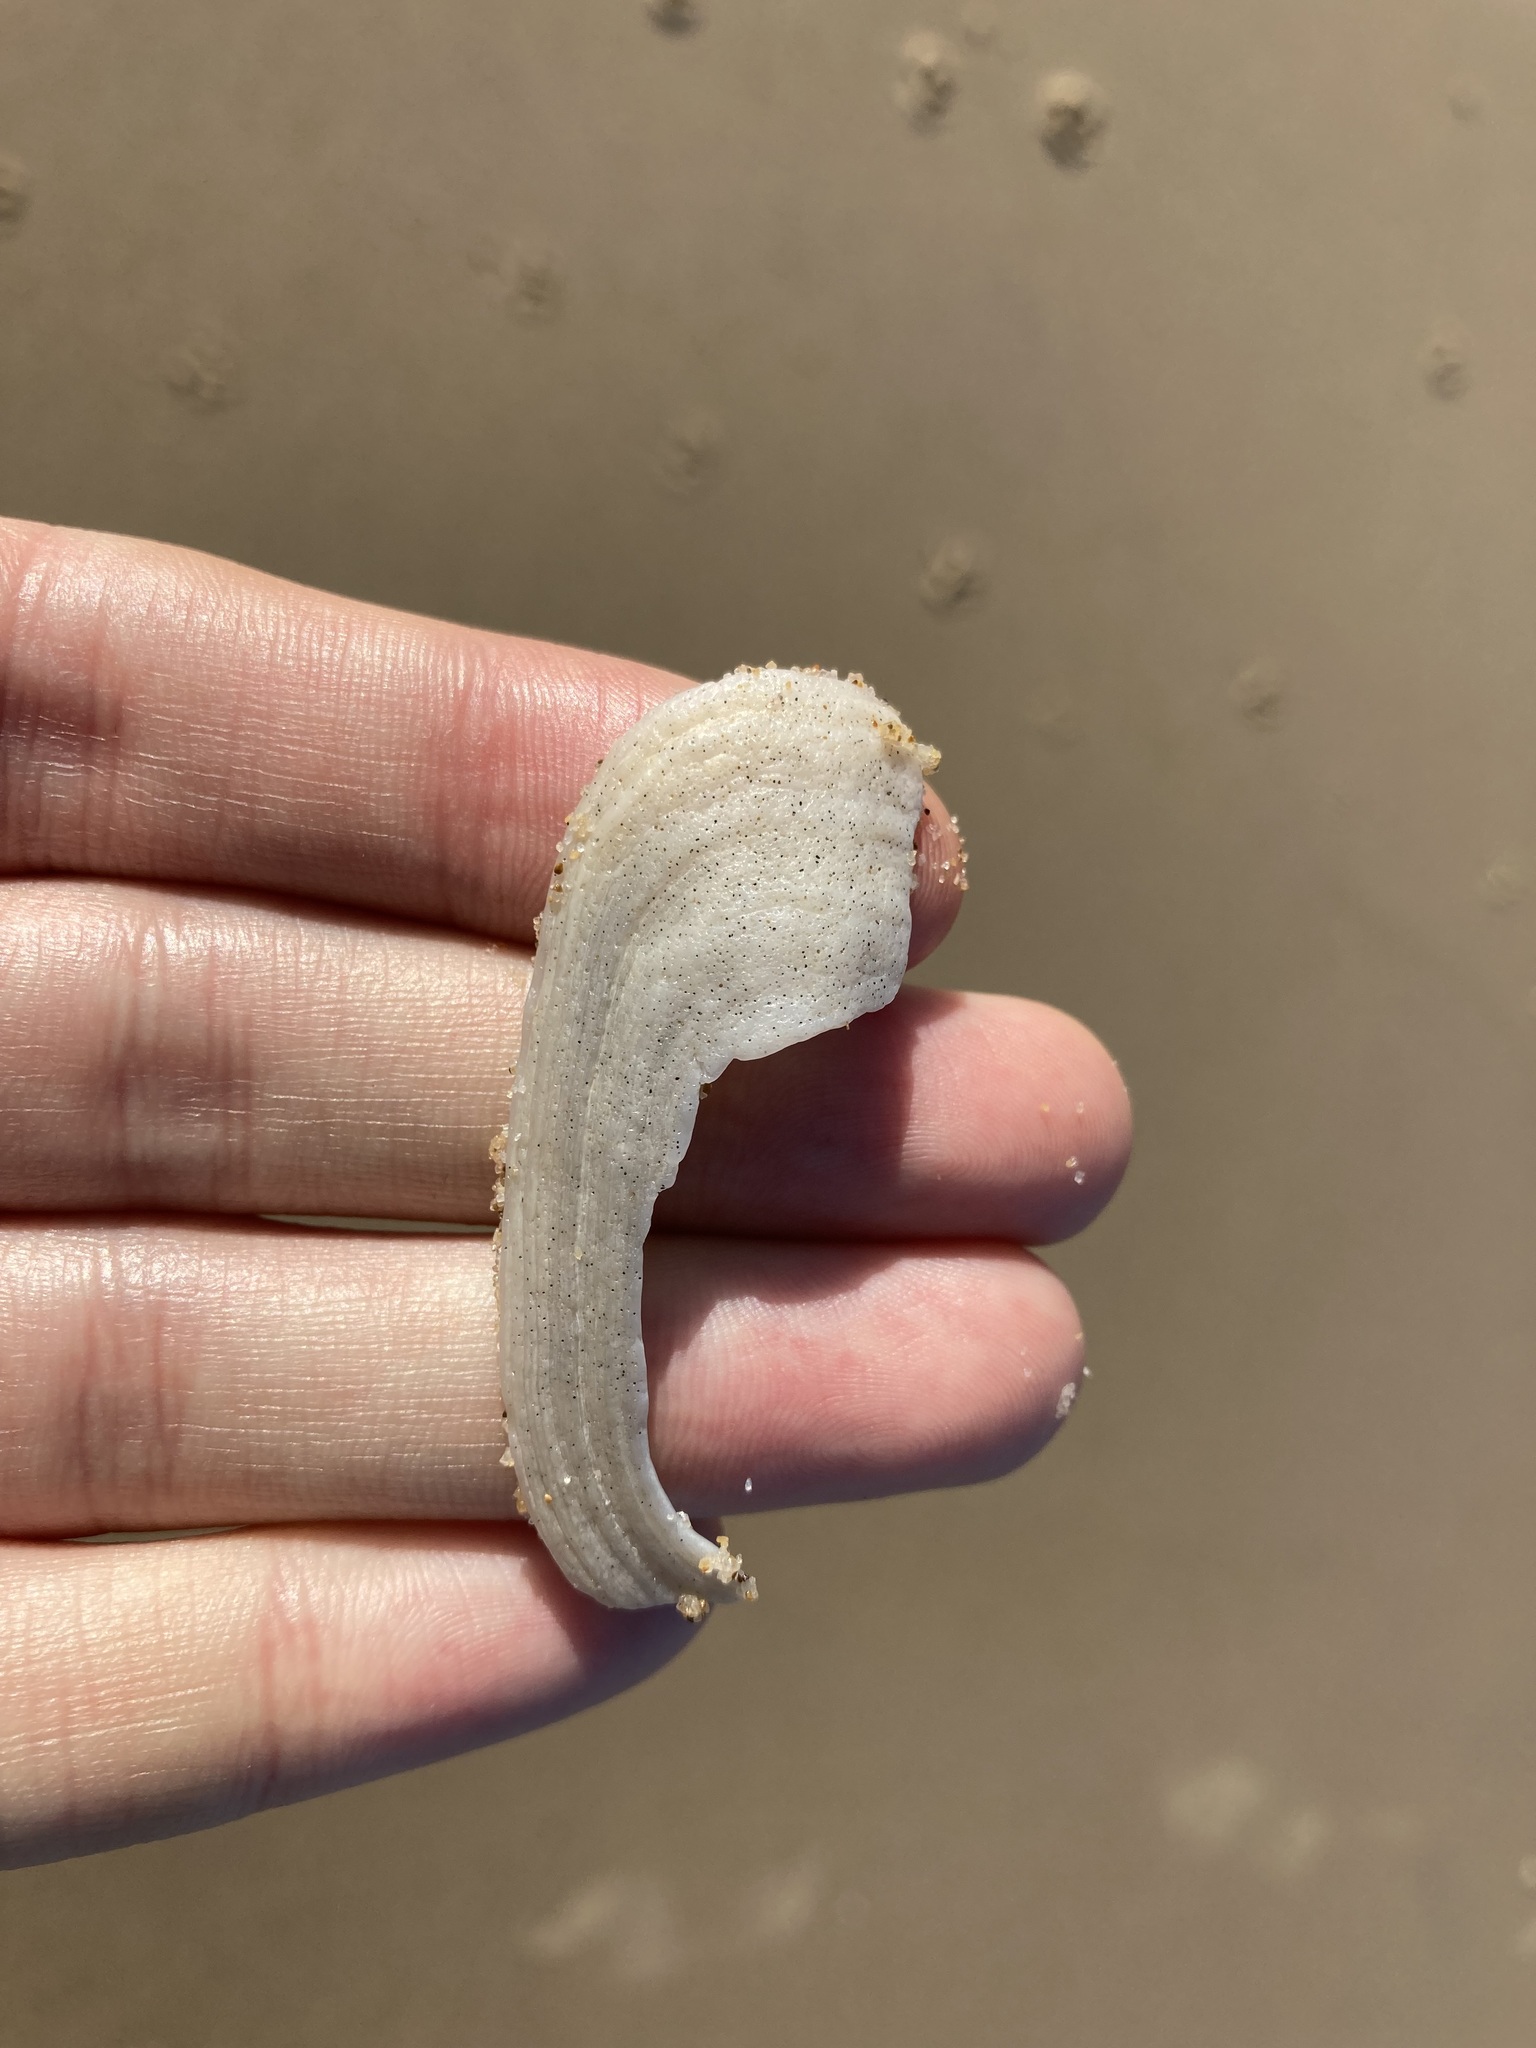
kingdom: Animalia
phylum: Mollusca
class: Gastropoda
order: Lepetellida
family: Fissurellidae
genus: Scutus
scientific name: Scutus antipodes
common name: Duckbill shell
